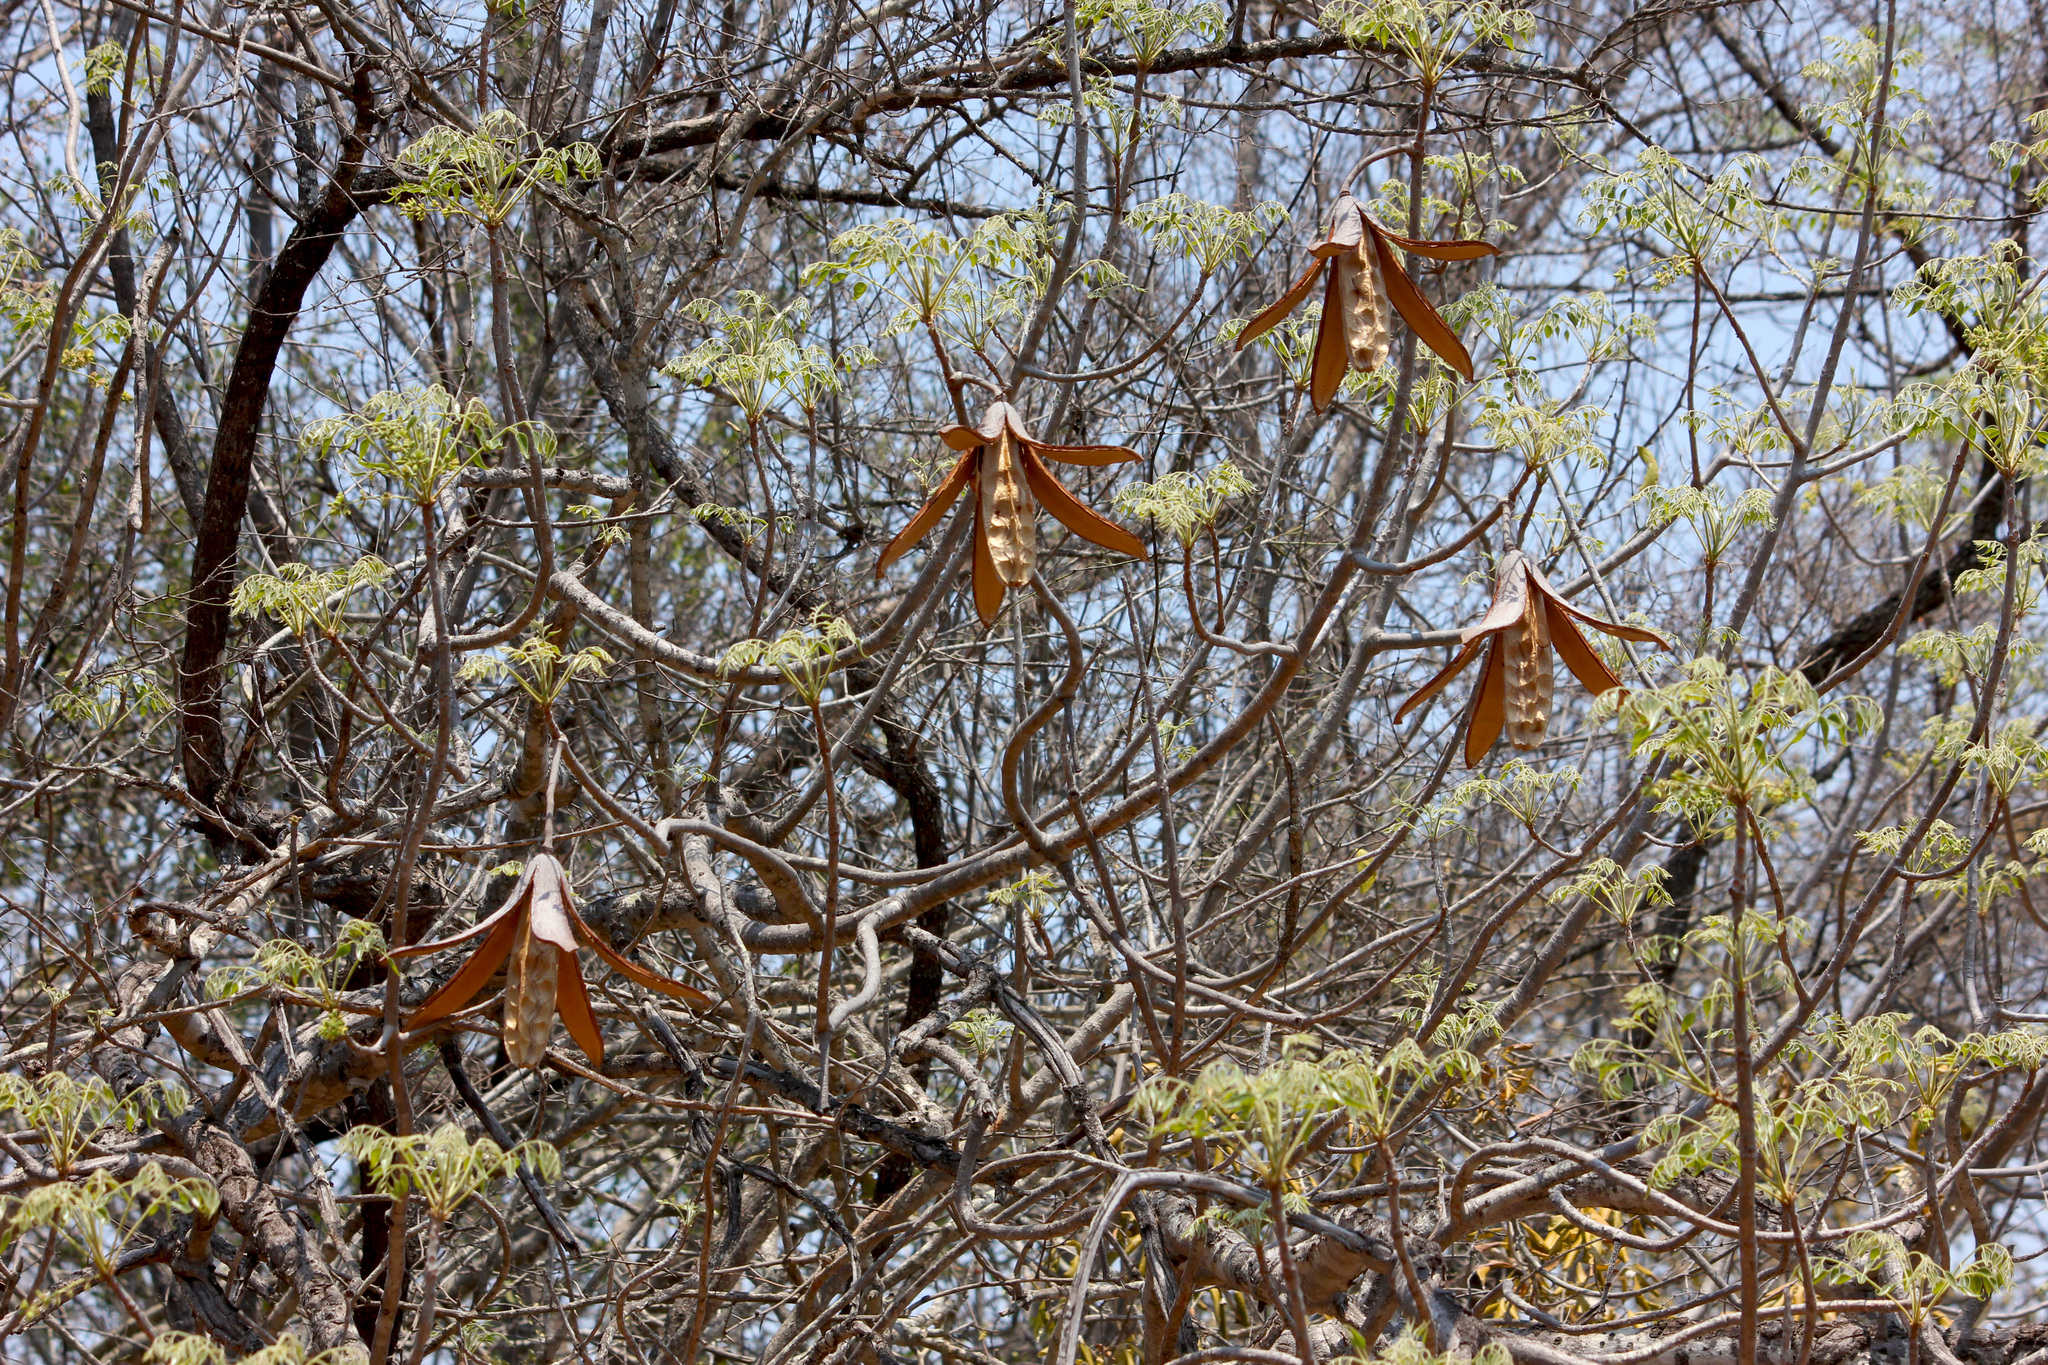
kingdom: Plantae
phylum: Tracheophyta
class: Magnoliopsida
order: Sapindales
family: Meliaceae
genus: Entandrophragma
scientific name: Entandrophragma caudatum
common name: Mountain-mahogany
